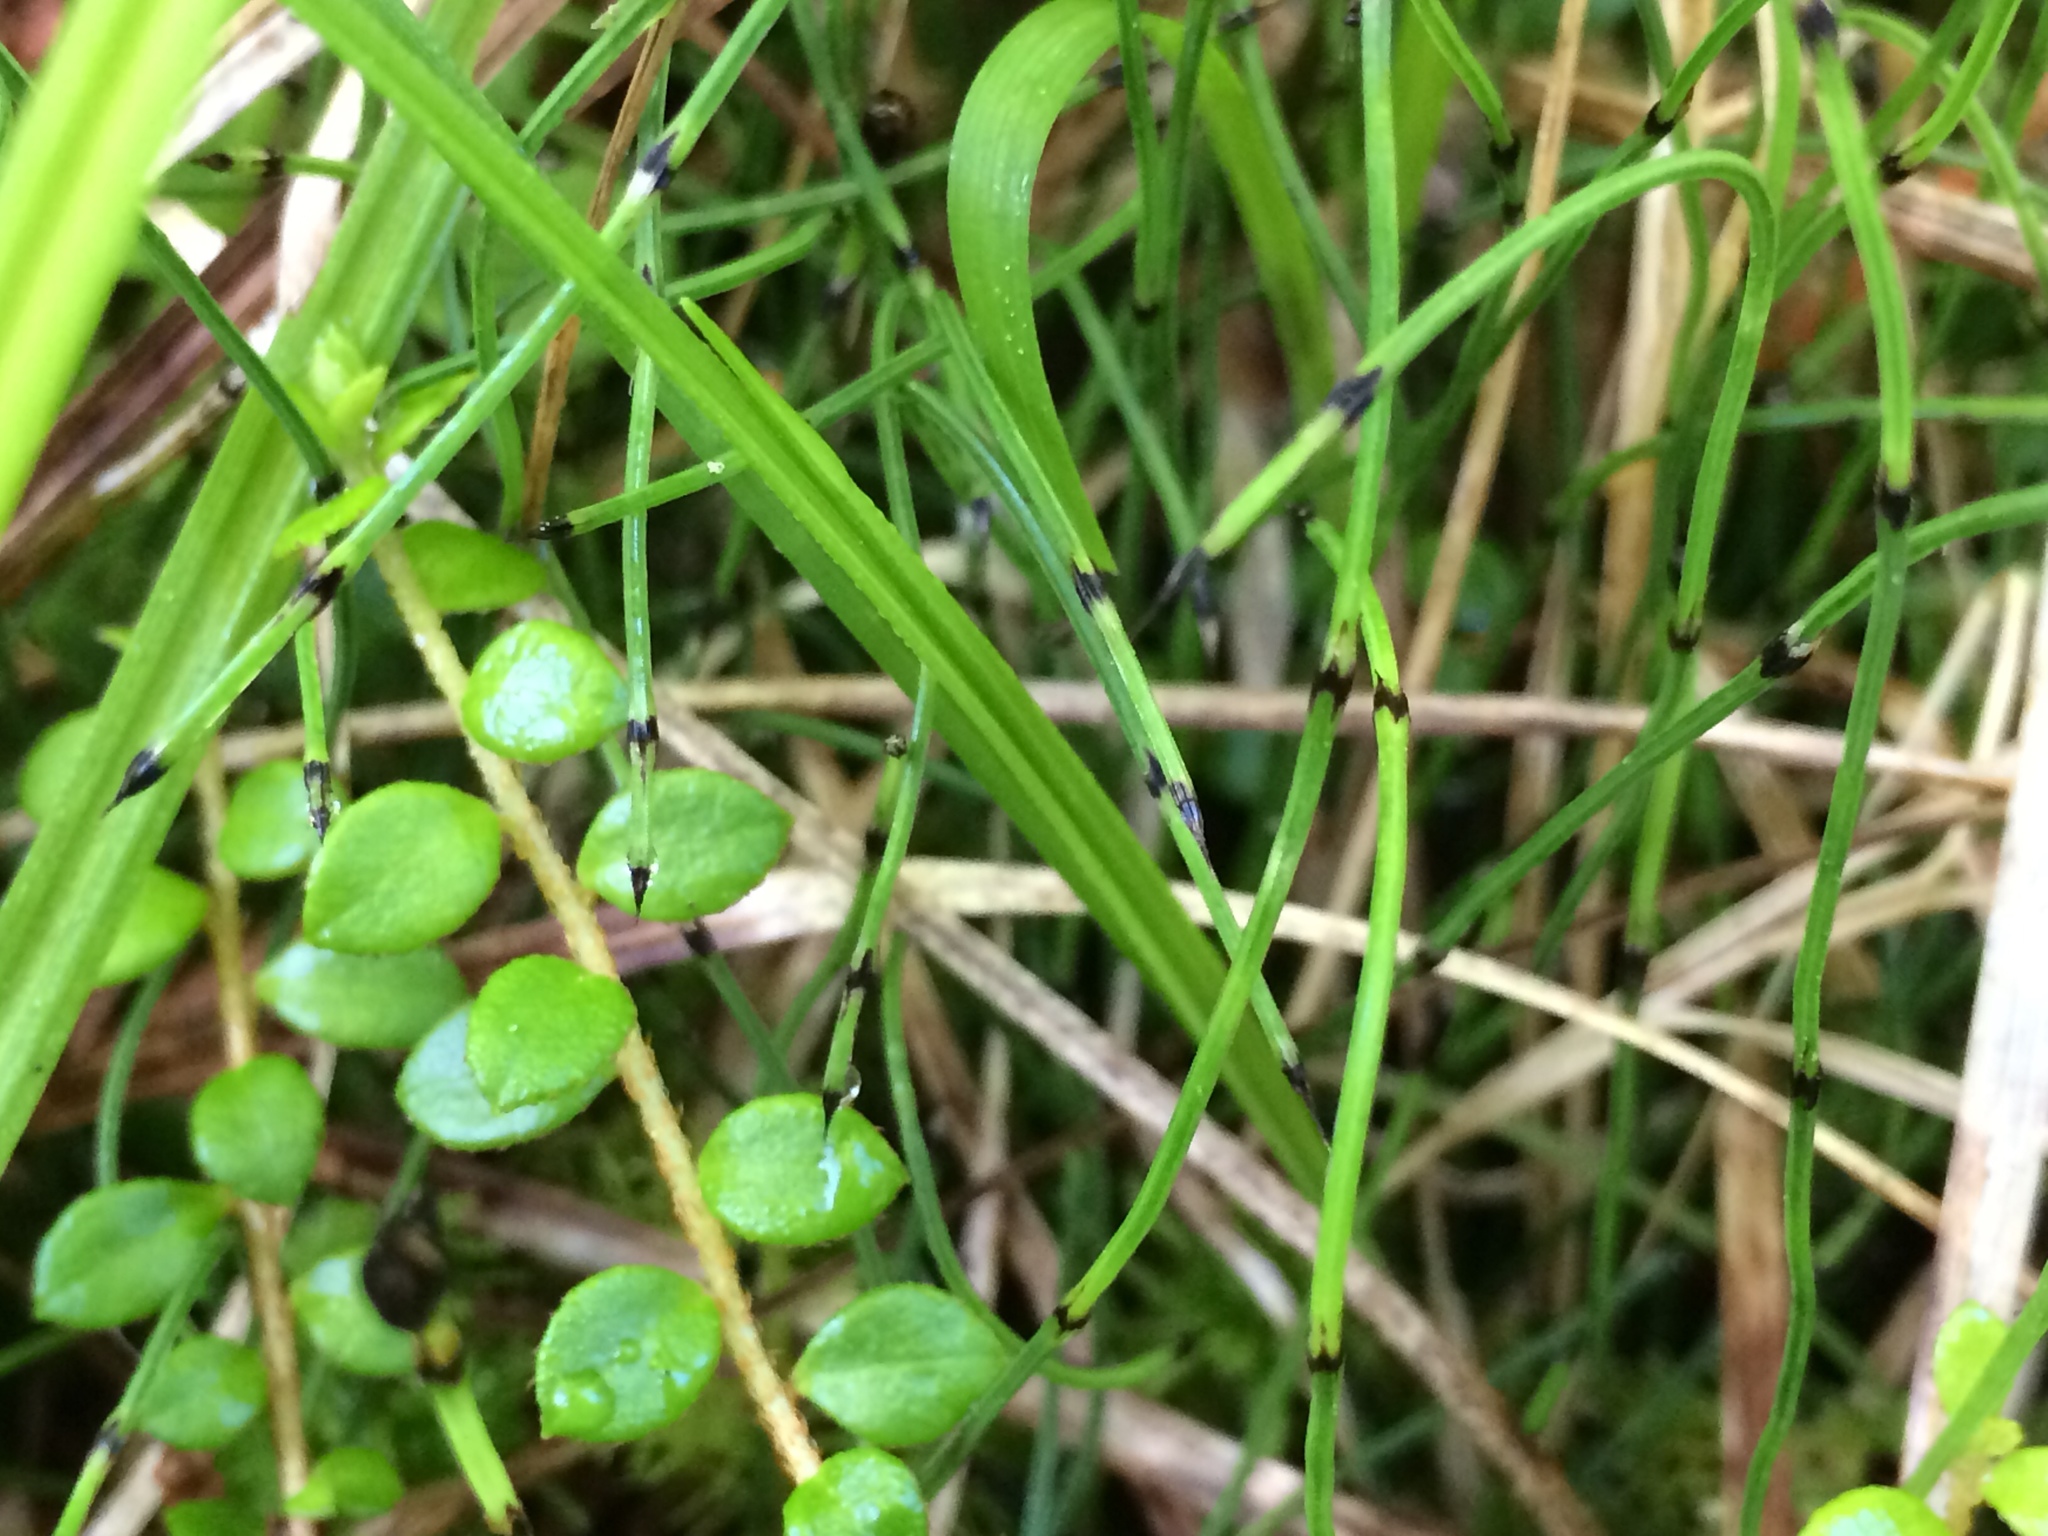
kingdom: Plantae
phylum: Tracheophyta
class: Polypodiopsida
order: Equisetales
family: Equisetaceae
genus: Equisetum
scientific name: Equisetum scirpoides
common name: Delicate horsetail
